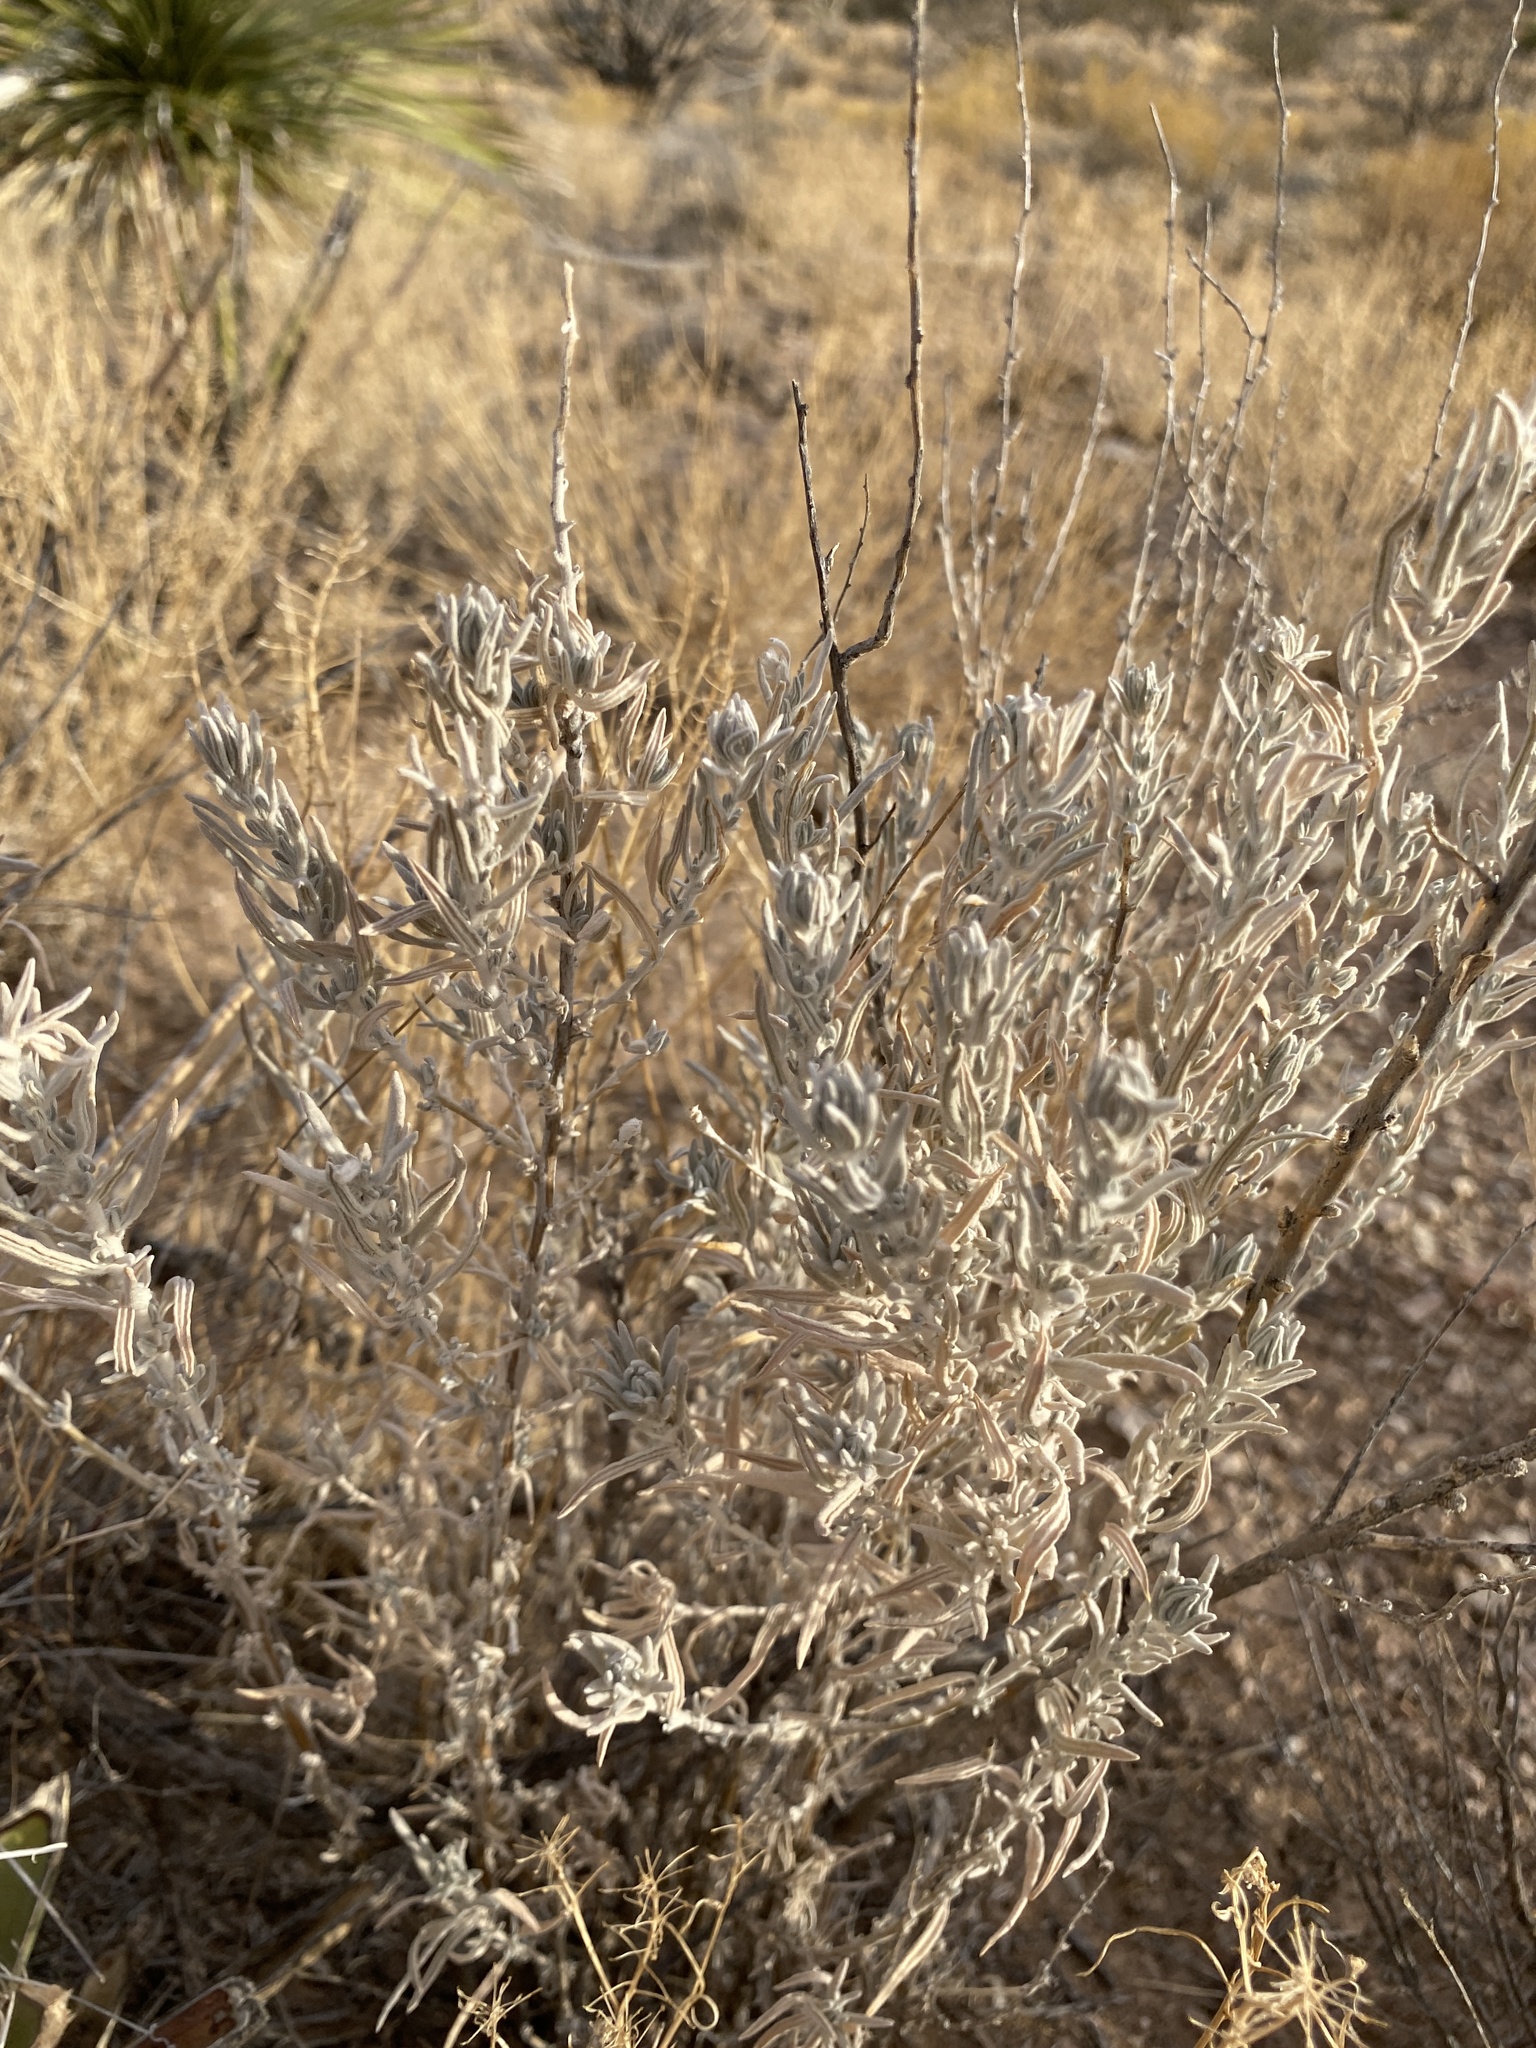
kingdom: Plantae
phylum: Tracheophyta
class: Magnoliopsida
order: Caryophyllales
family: Amaranthaceae
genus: Krascheninnikovia
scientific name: Krascheninnikovia lanata
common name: Winterfat
